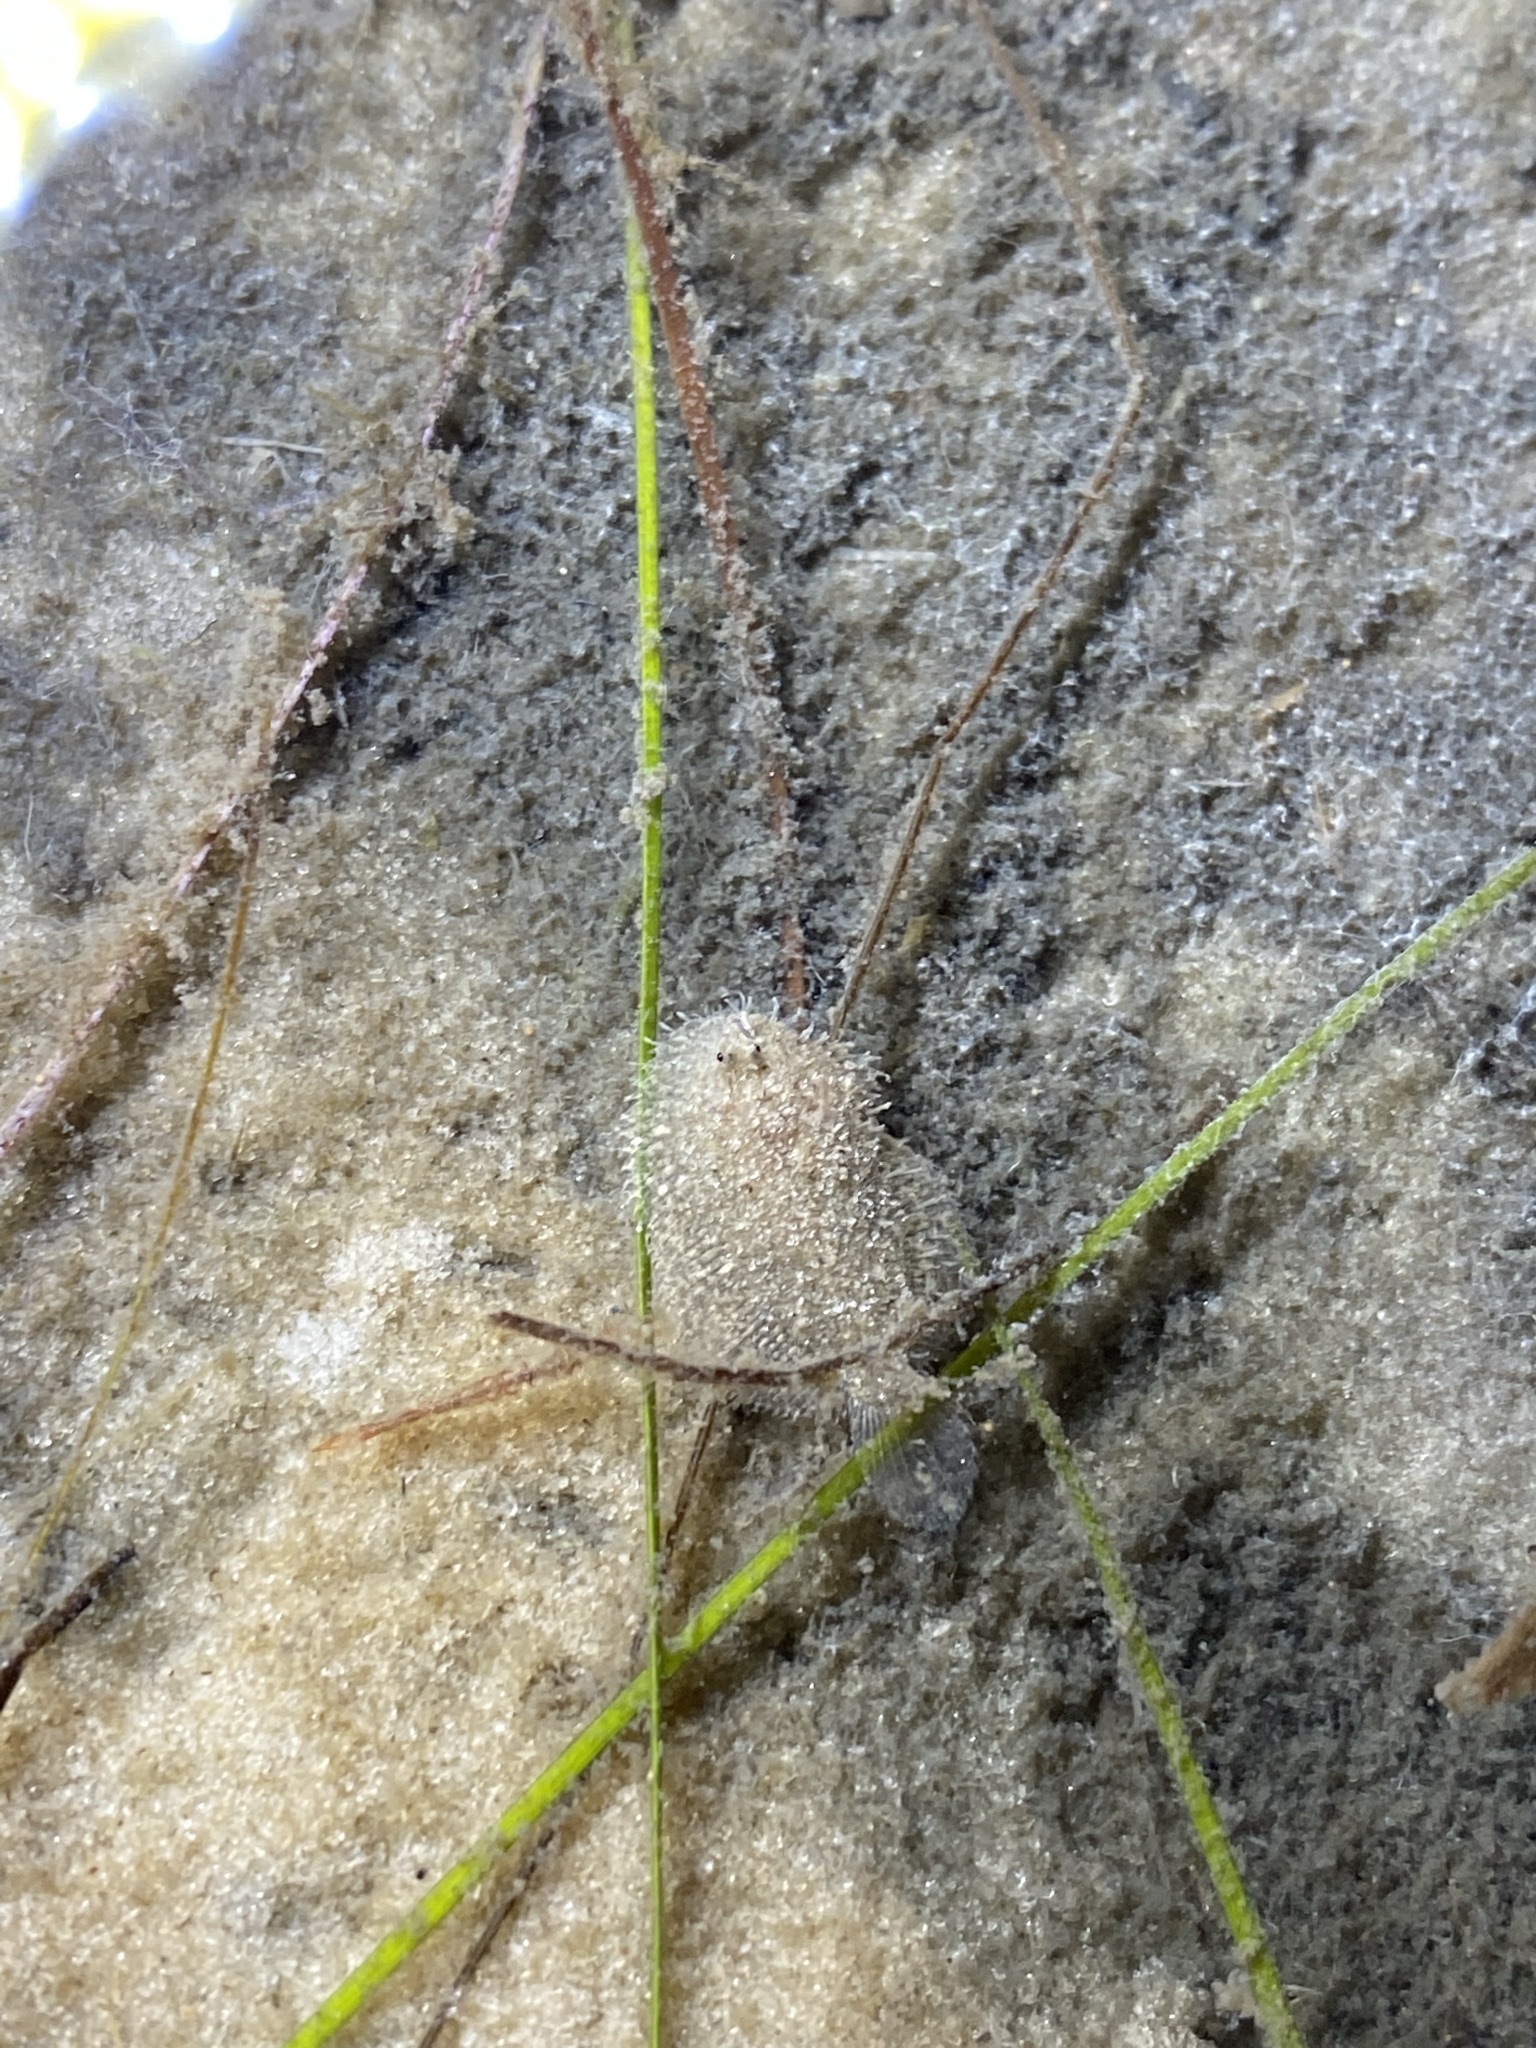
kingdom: Animalia
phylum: Chordata
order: Pleuronectiformes
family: Achiridae
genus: Achirus
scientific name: Achirus lineatus
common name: Lined sole
